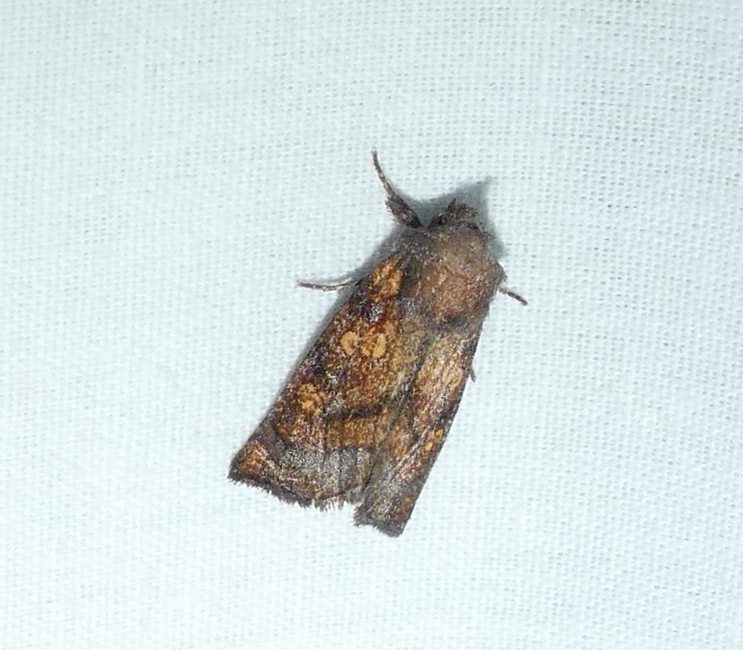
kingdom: Animalia
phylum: Arthropoda
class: Insecta
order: Lepidoptera
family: Noctuidae
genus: Papaipema
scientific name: Papaipema impecuniosa
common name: Aster borer moth
